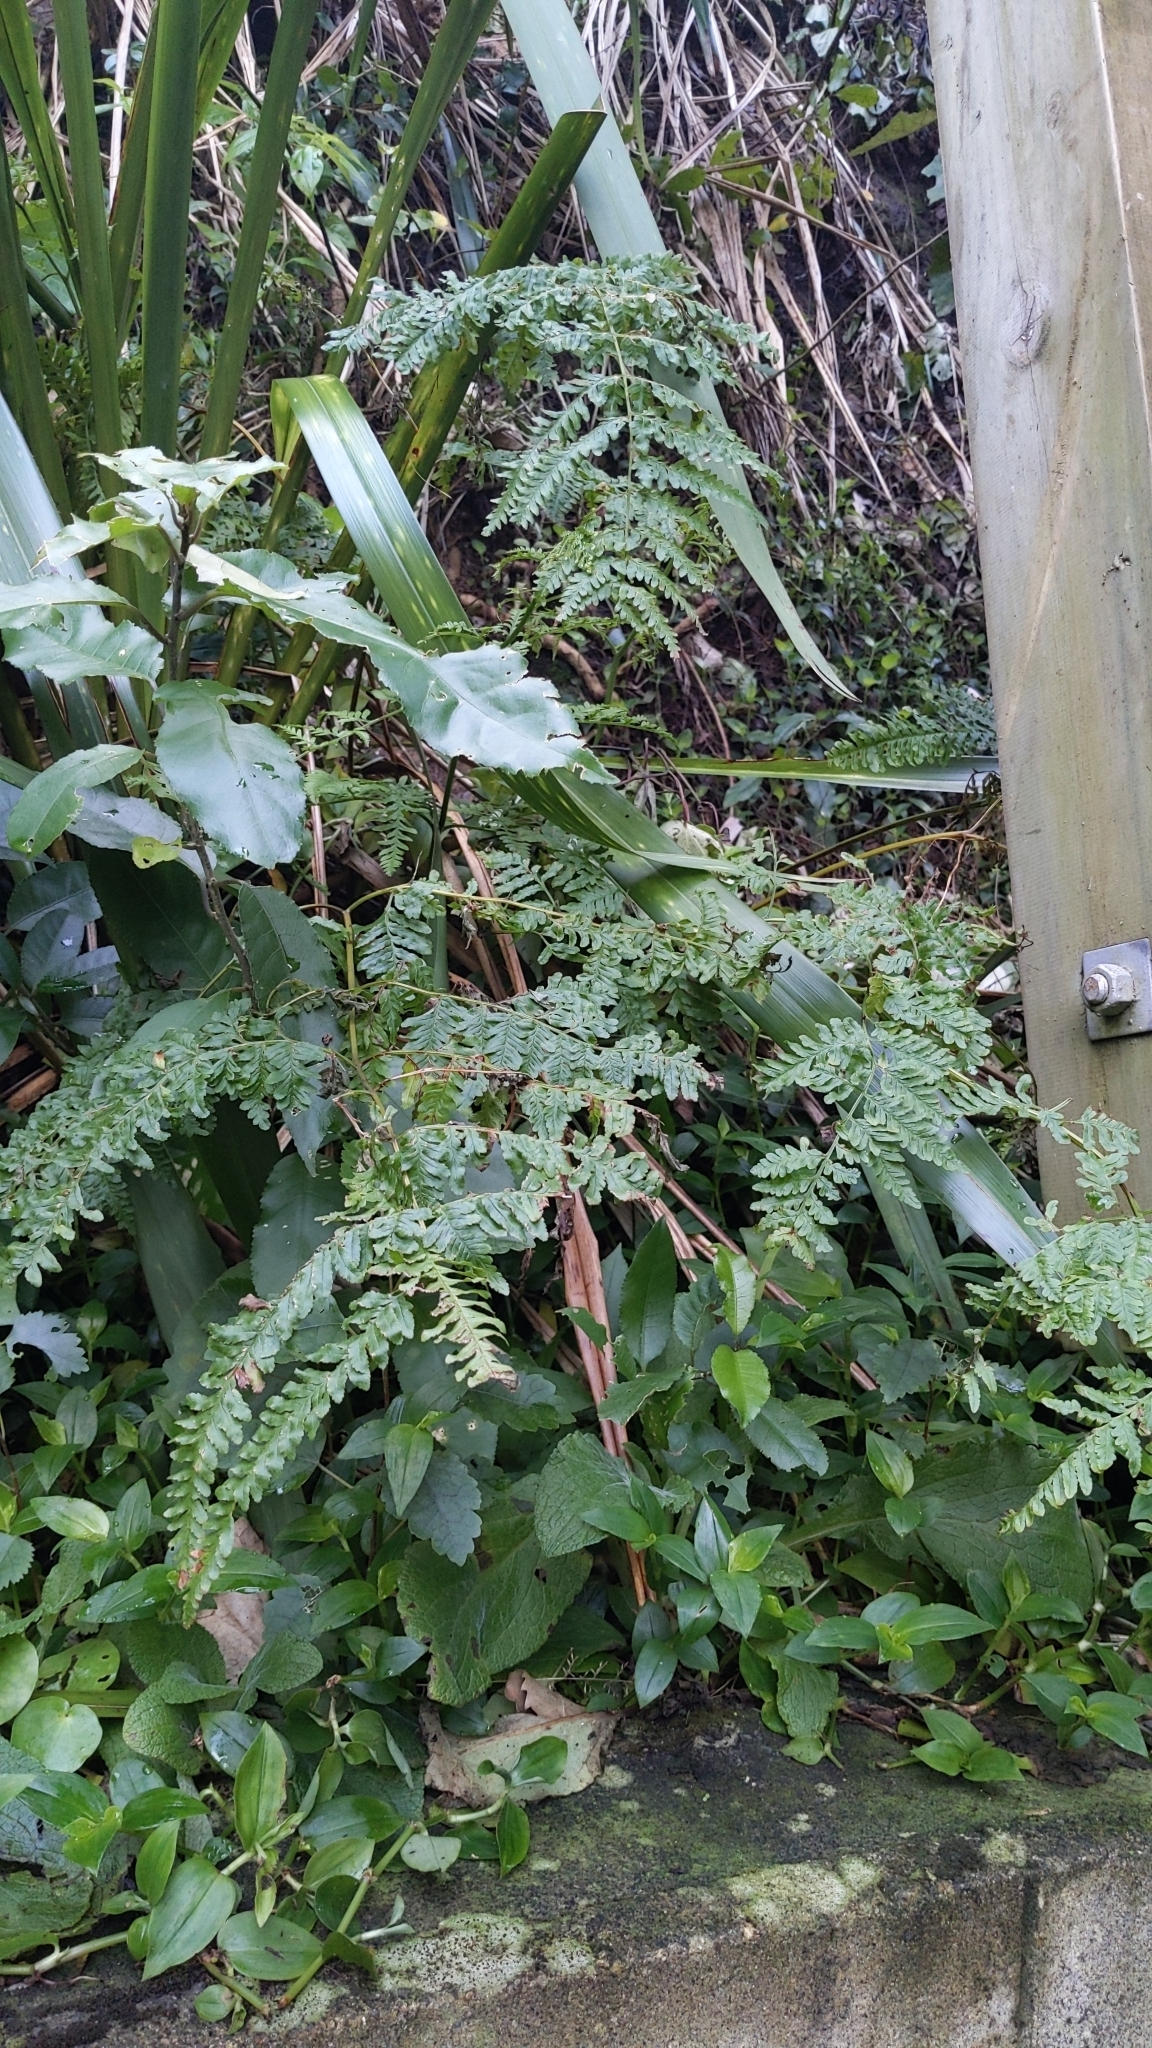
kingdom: Plantae
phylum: Tracheophyta
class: Polypodiopsida
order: Polypodiales
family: Pteridaceae
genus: Pteris
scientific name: Pteris tremula
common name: Australian brake
